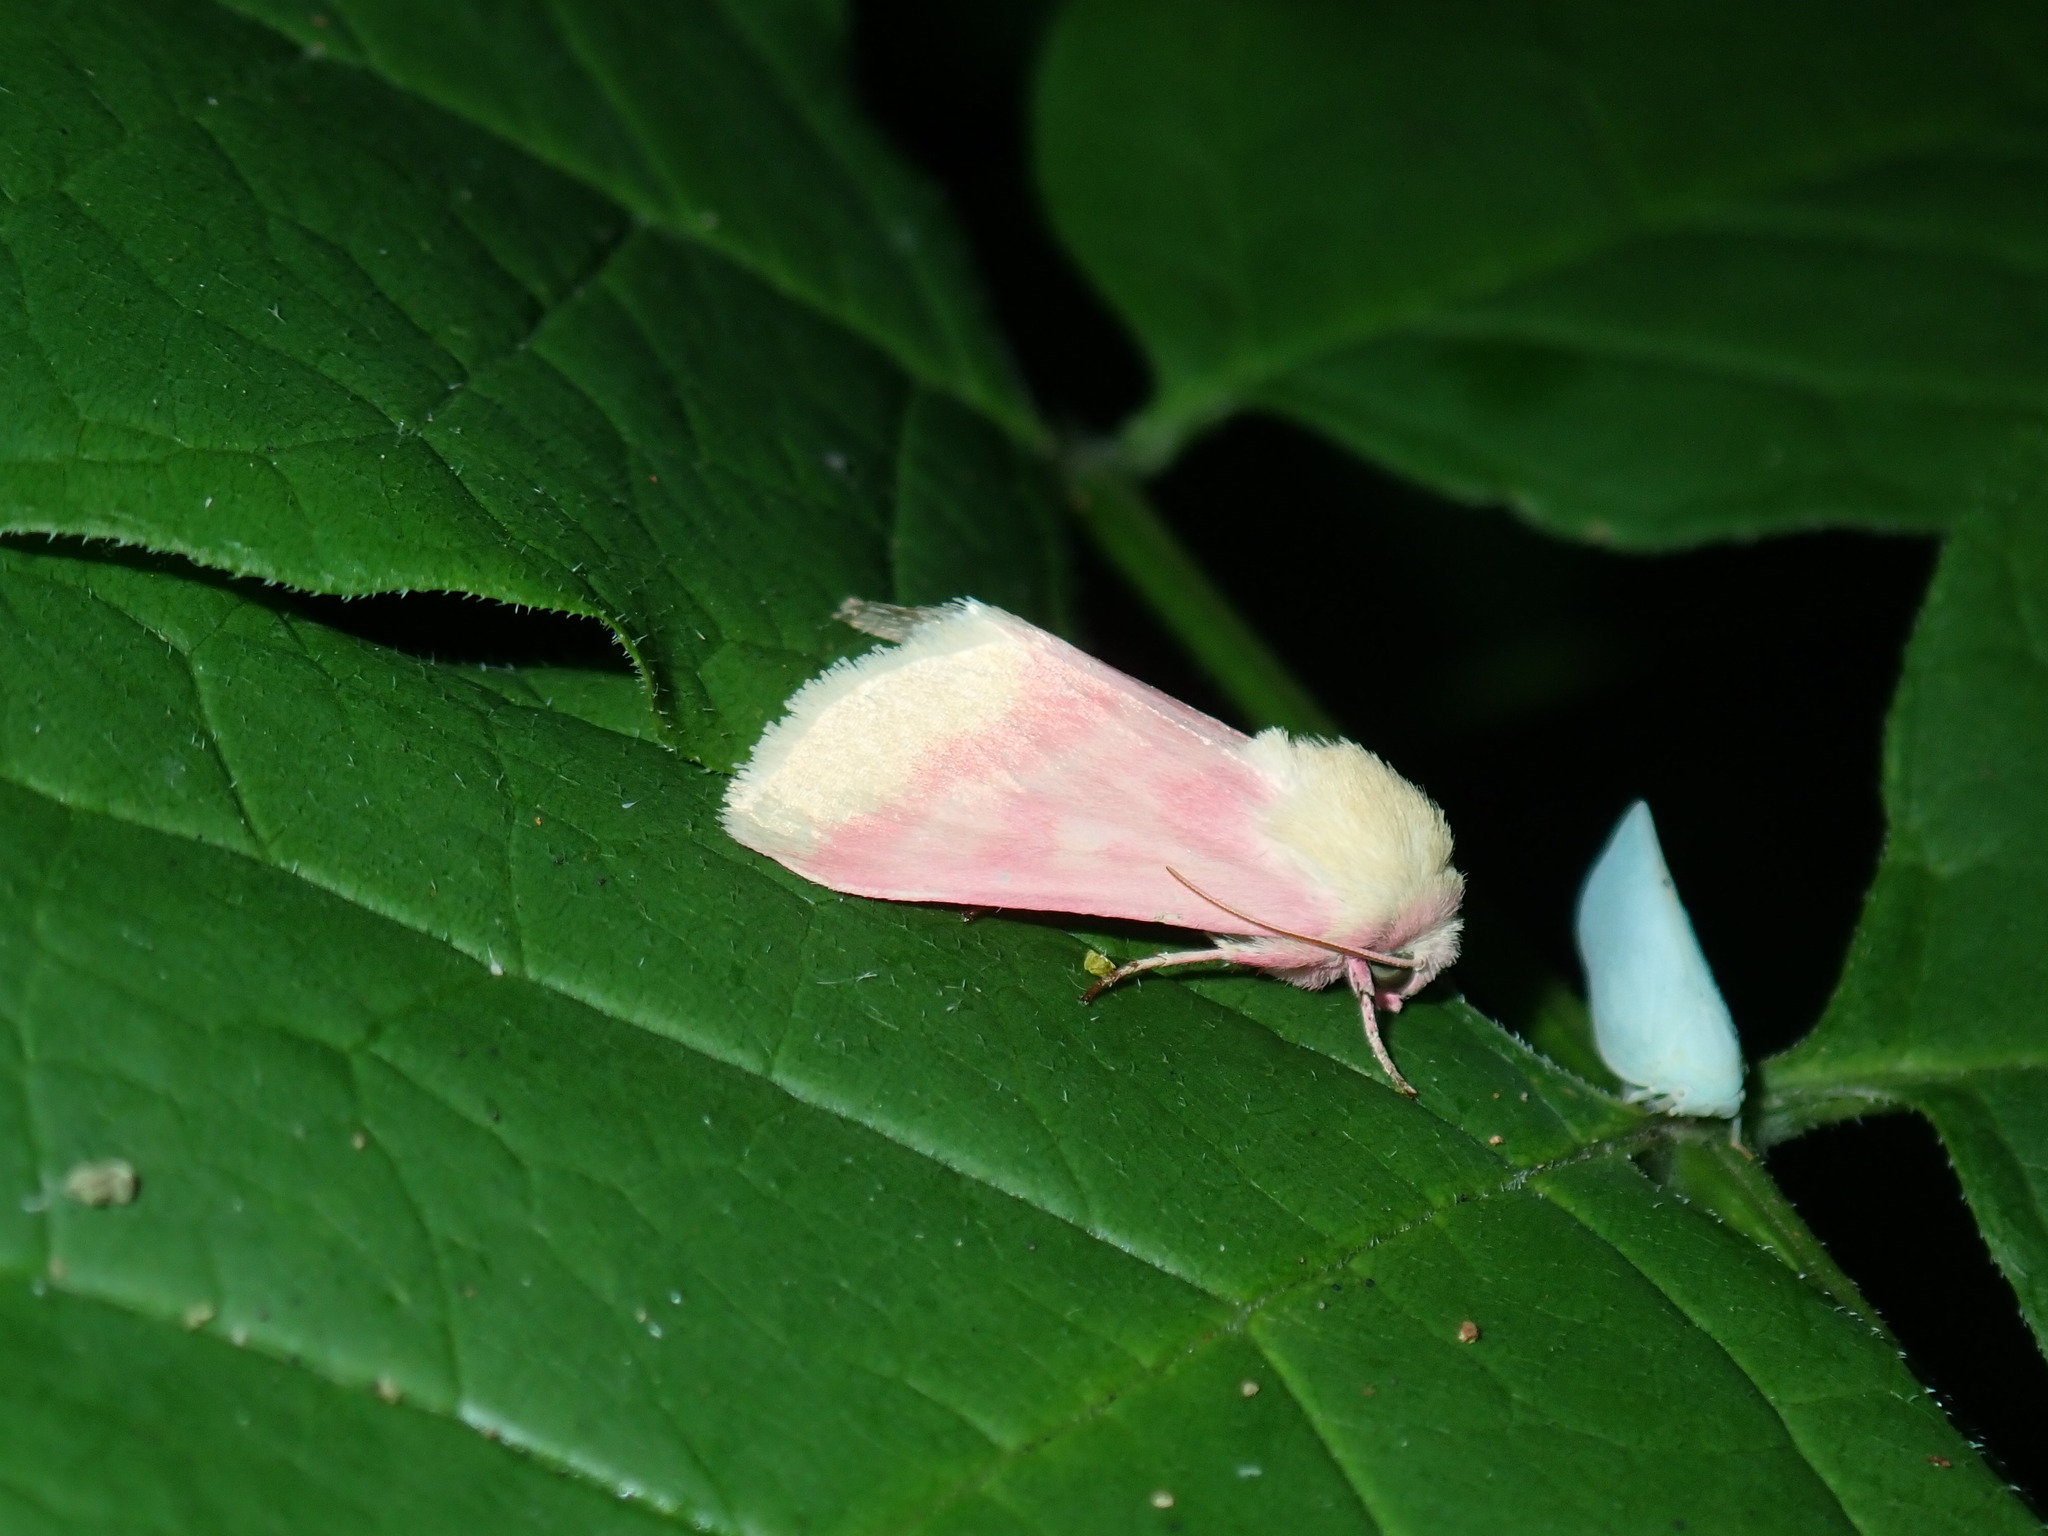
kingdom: Animalia
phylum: Arthropoda
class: Insecta
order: Lepidoptera
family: Noctuidae
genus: Schinia
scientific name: Schinia florida
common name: Primrose moth
